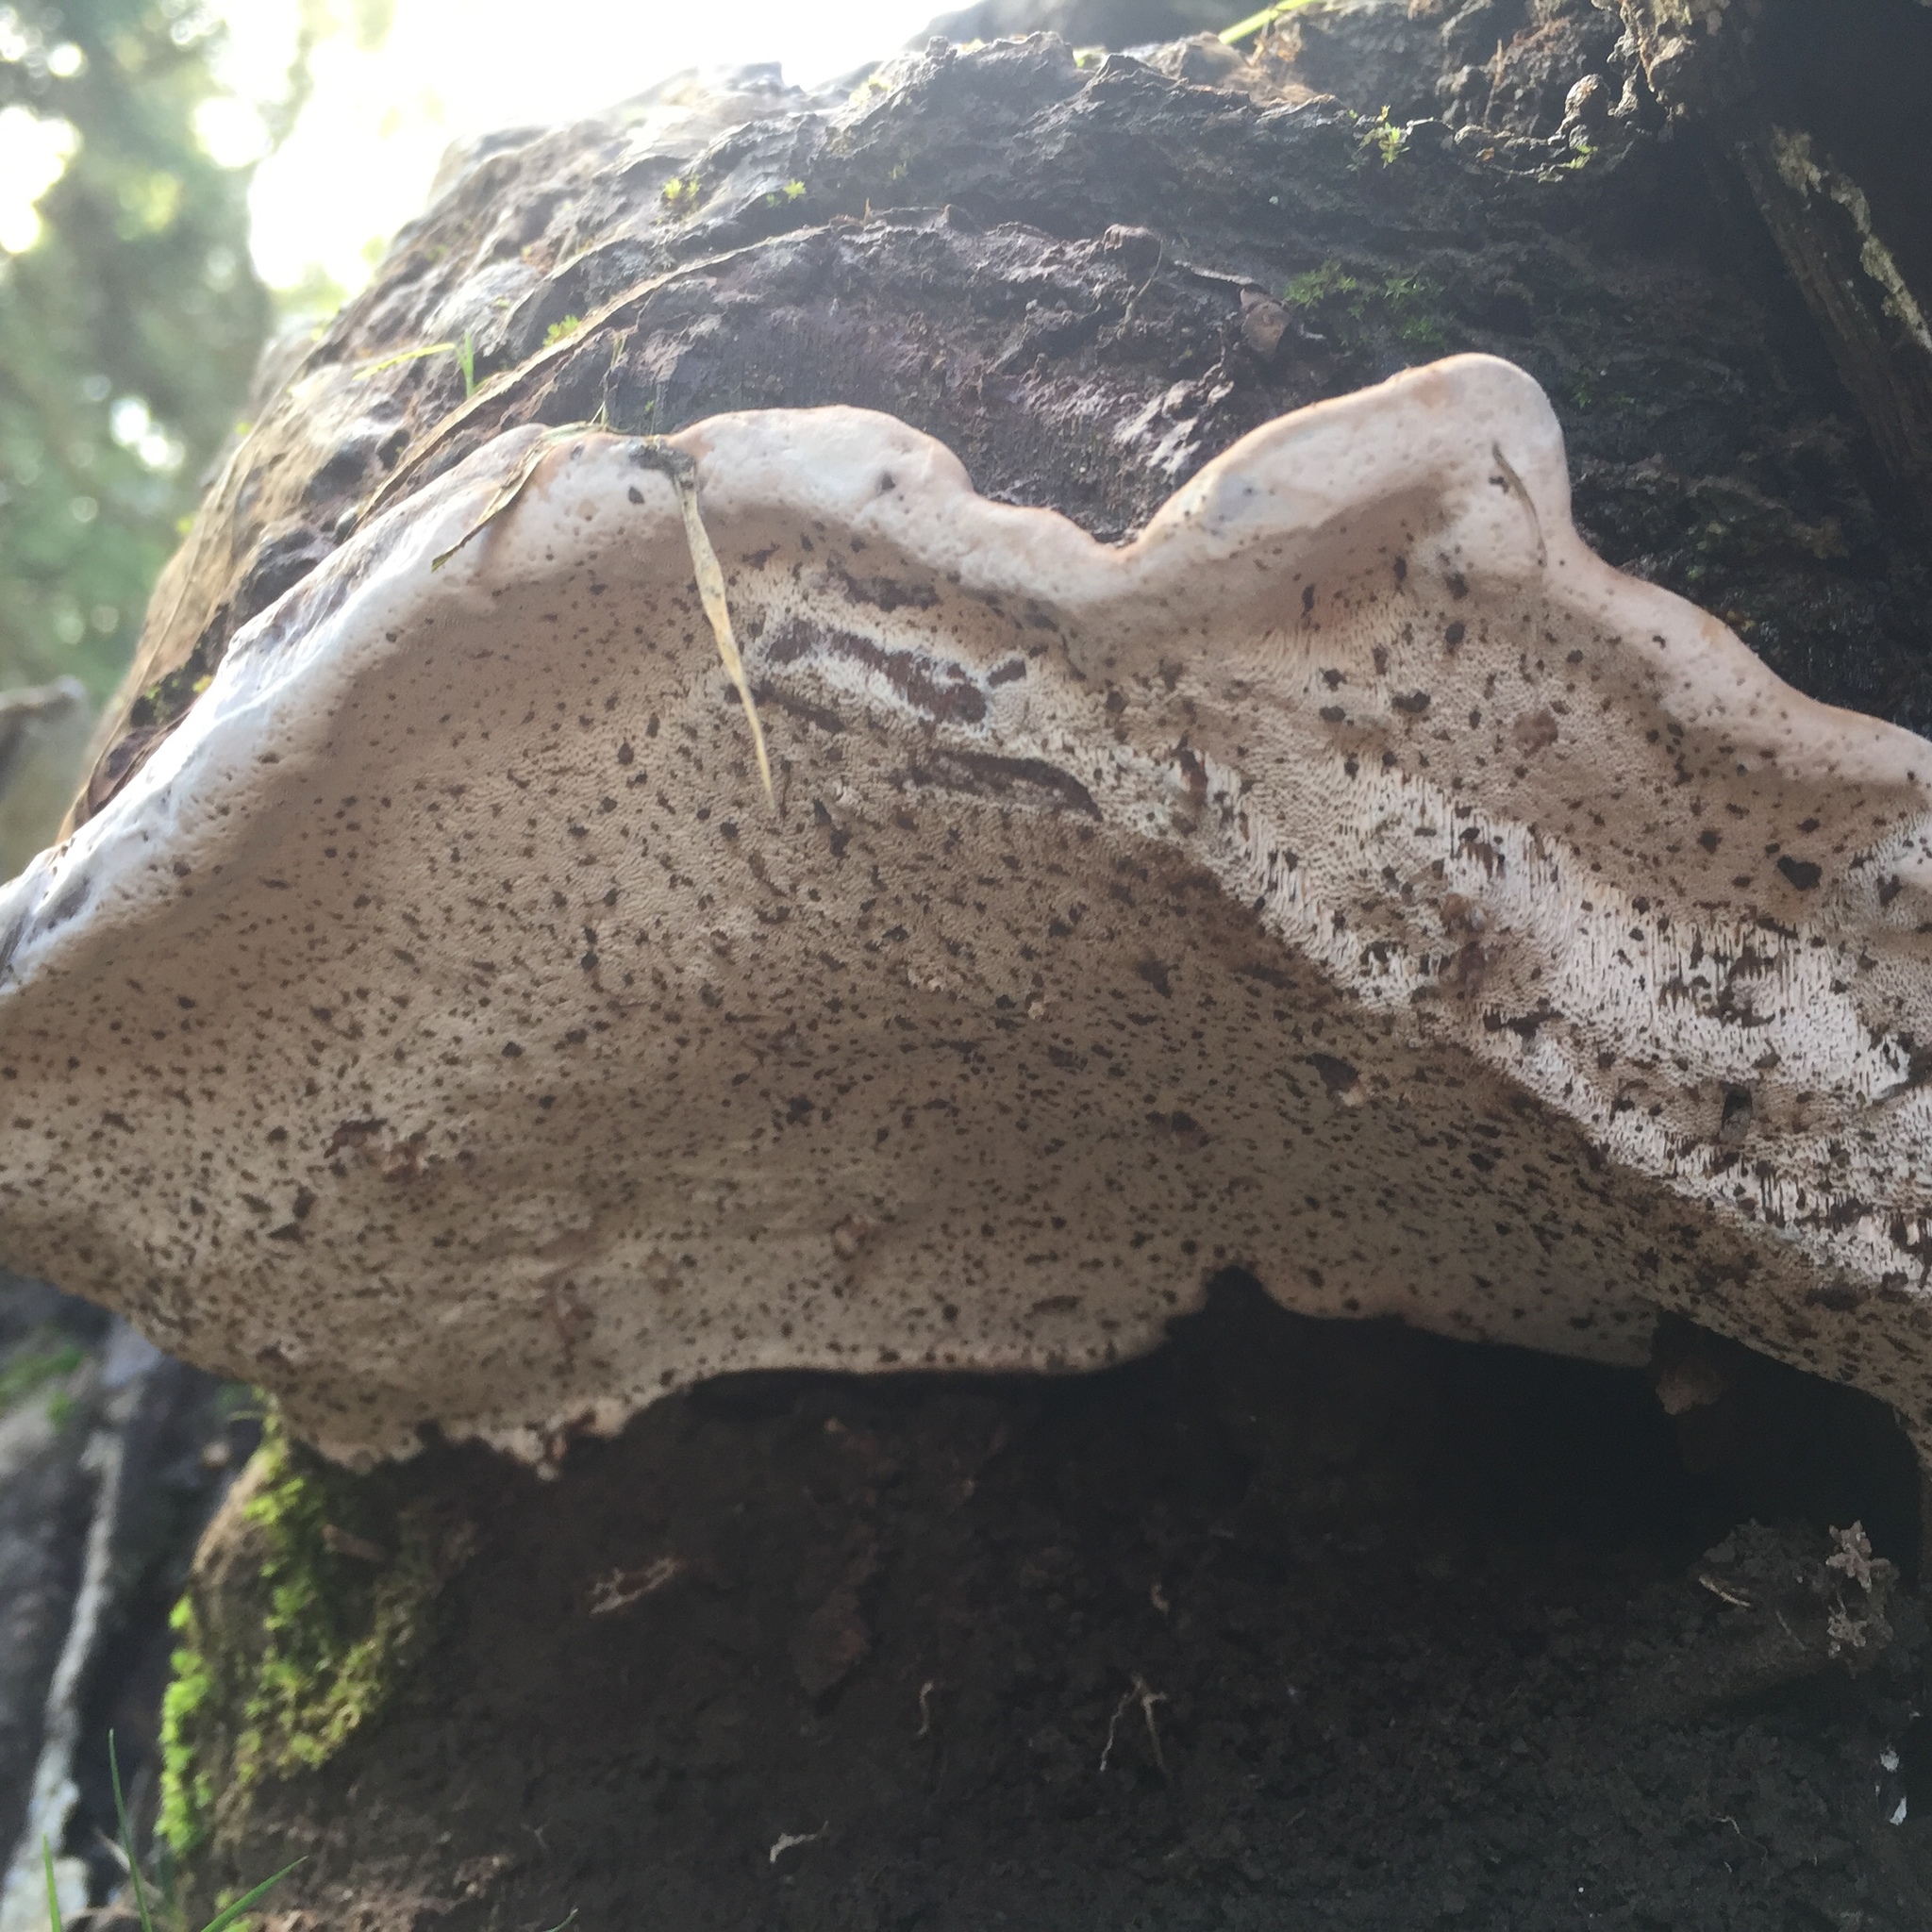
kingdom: Fungi
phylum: Basidiomycota
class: Agaricomycetes
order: Polyporales
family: Polyporaceae
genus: Ganoderma
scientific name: Ganoderma australe
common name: Southern bracket
